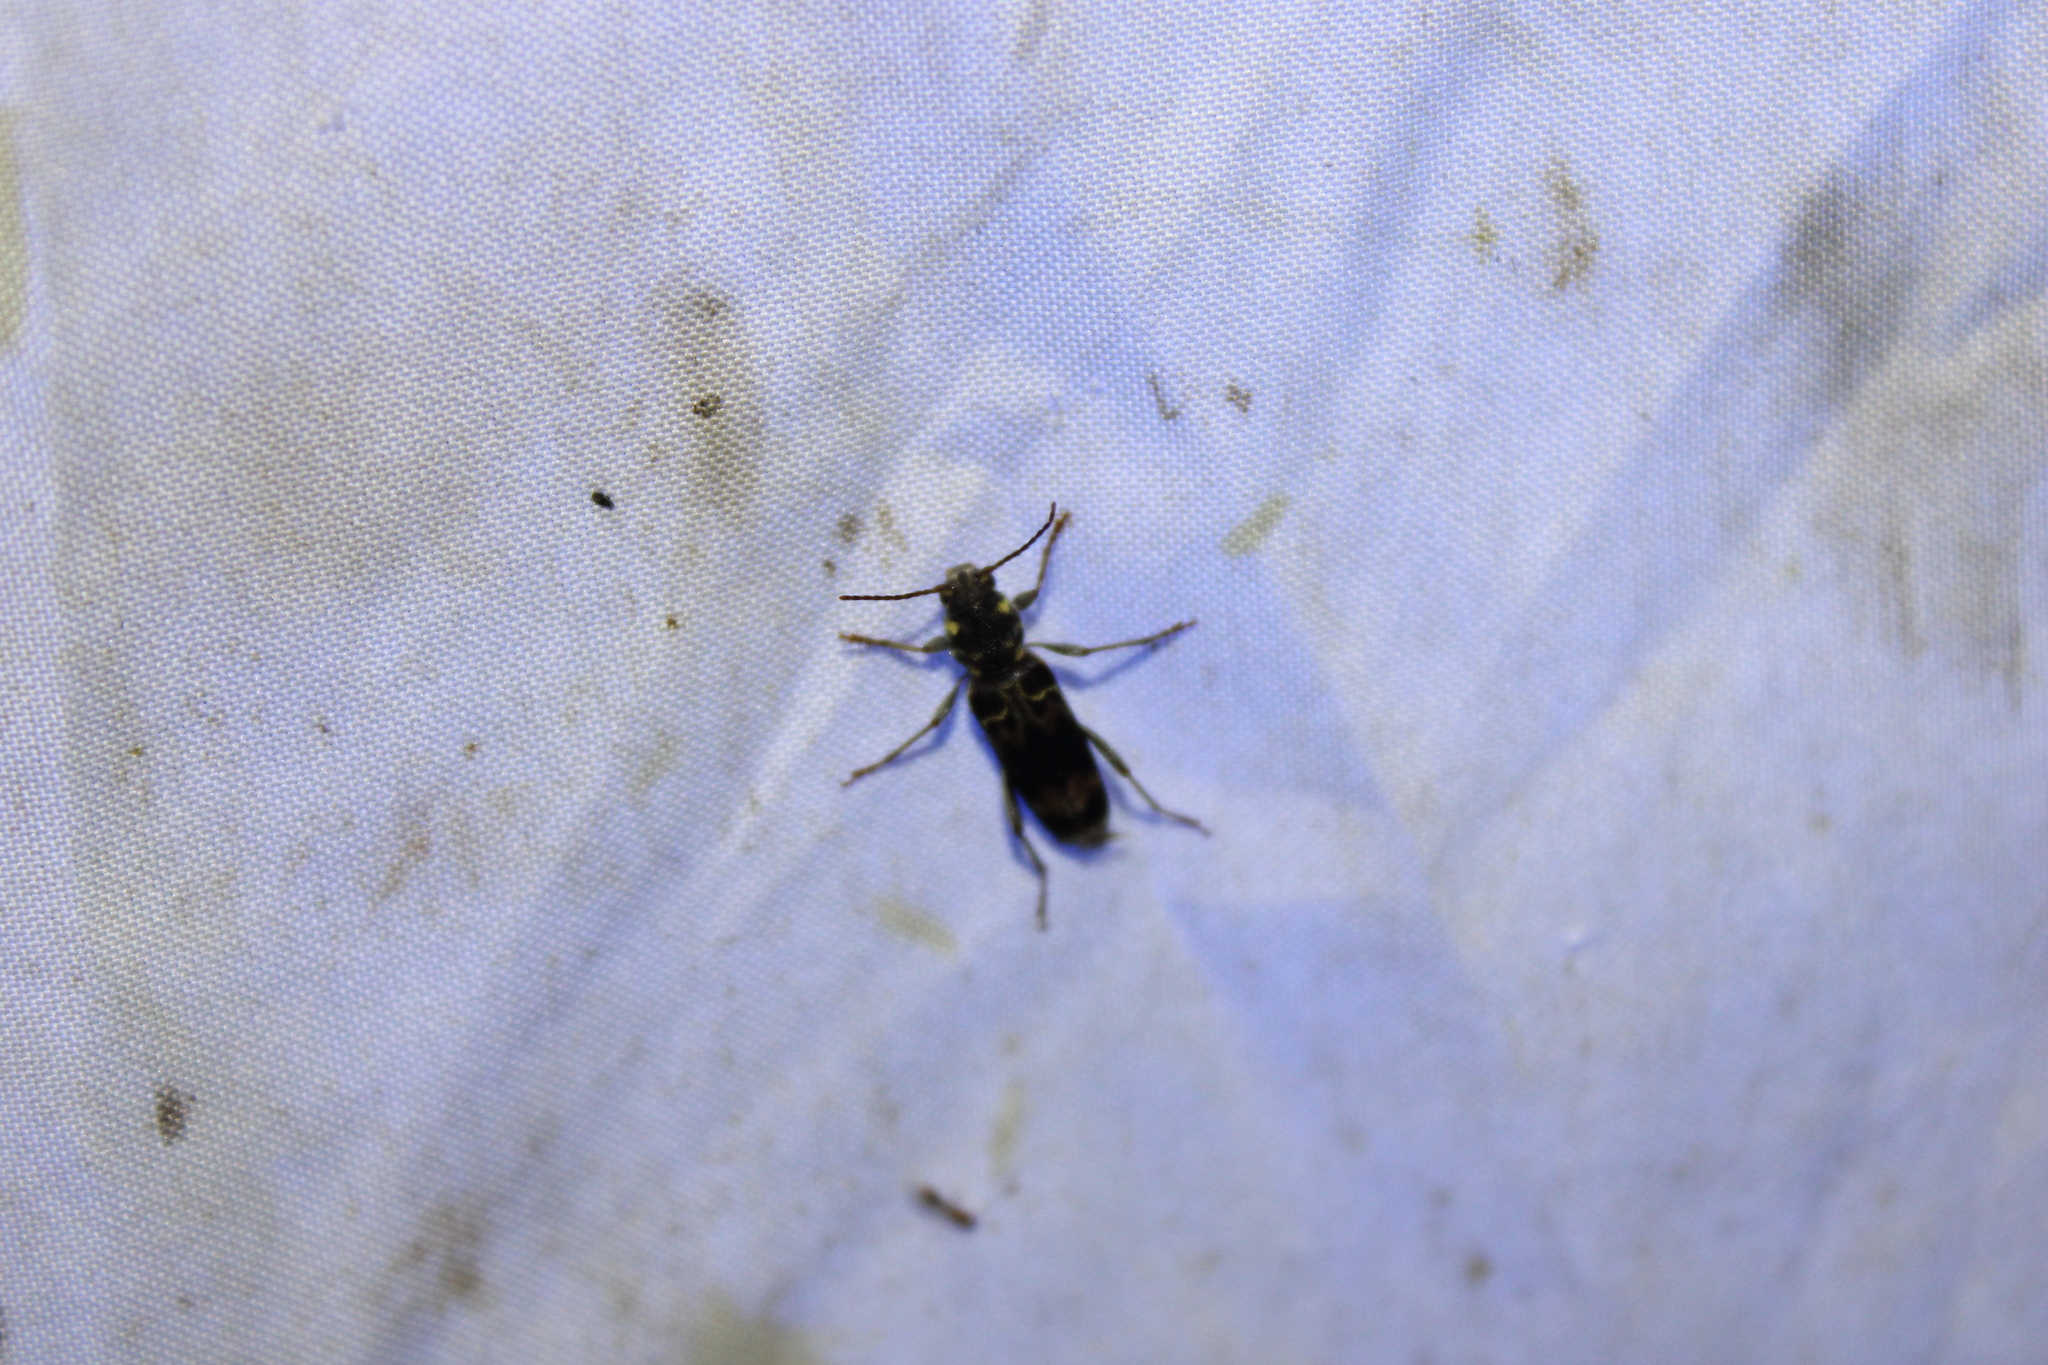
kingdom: Animalia
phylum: Arthropoda
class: Insecta
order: Coleoptera
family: Cerambycidae
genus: Xylotrechus
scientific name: Xylotrechus colonus
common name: Long-horned beetle
